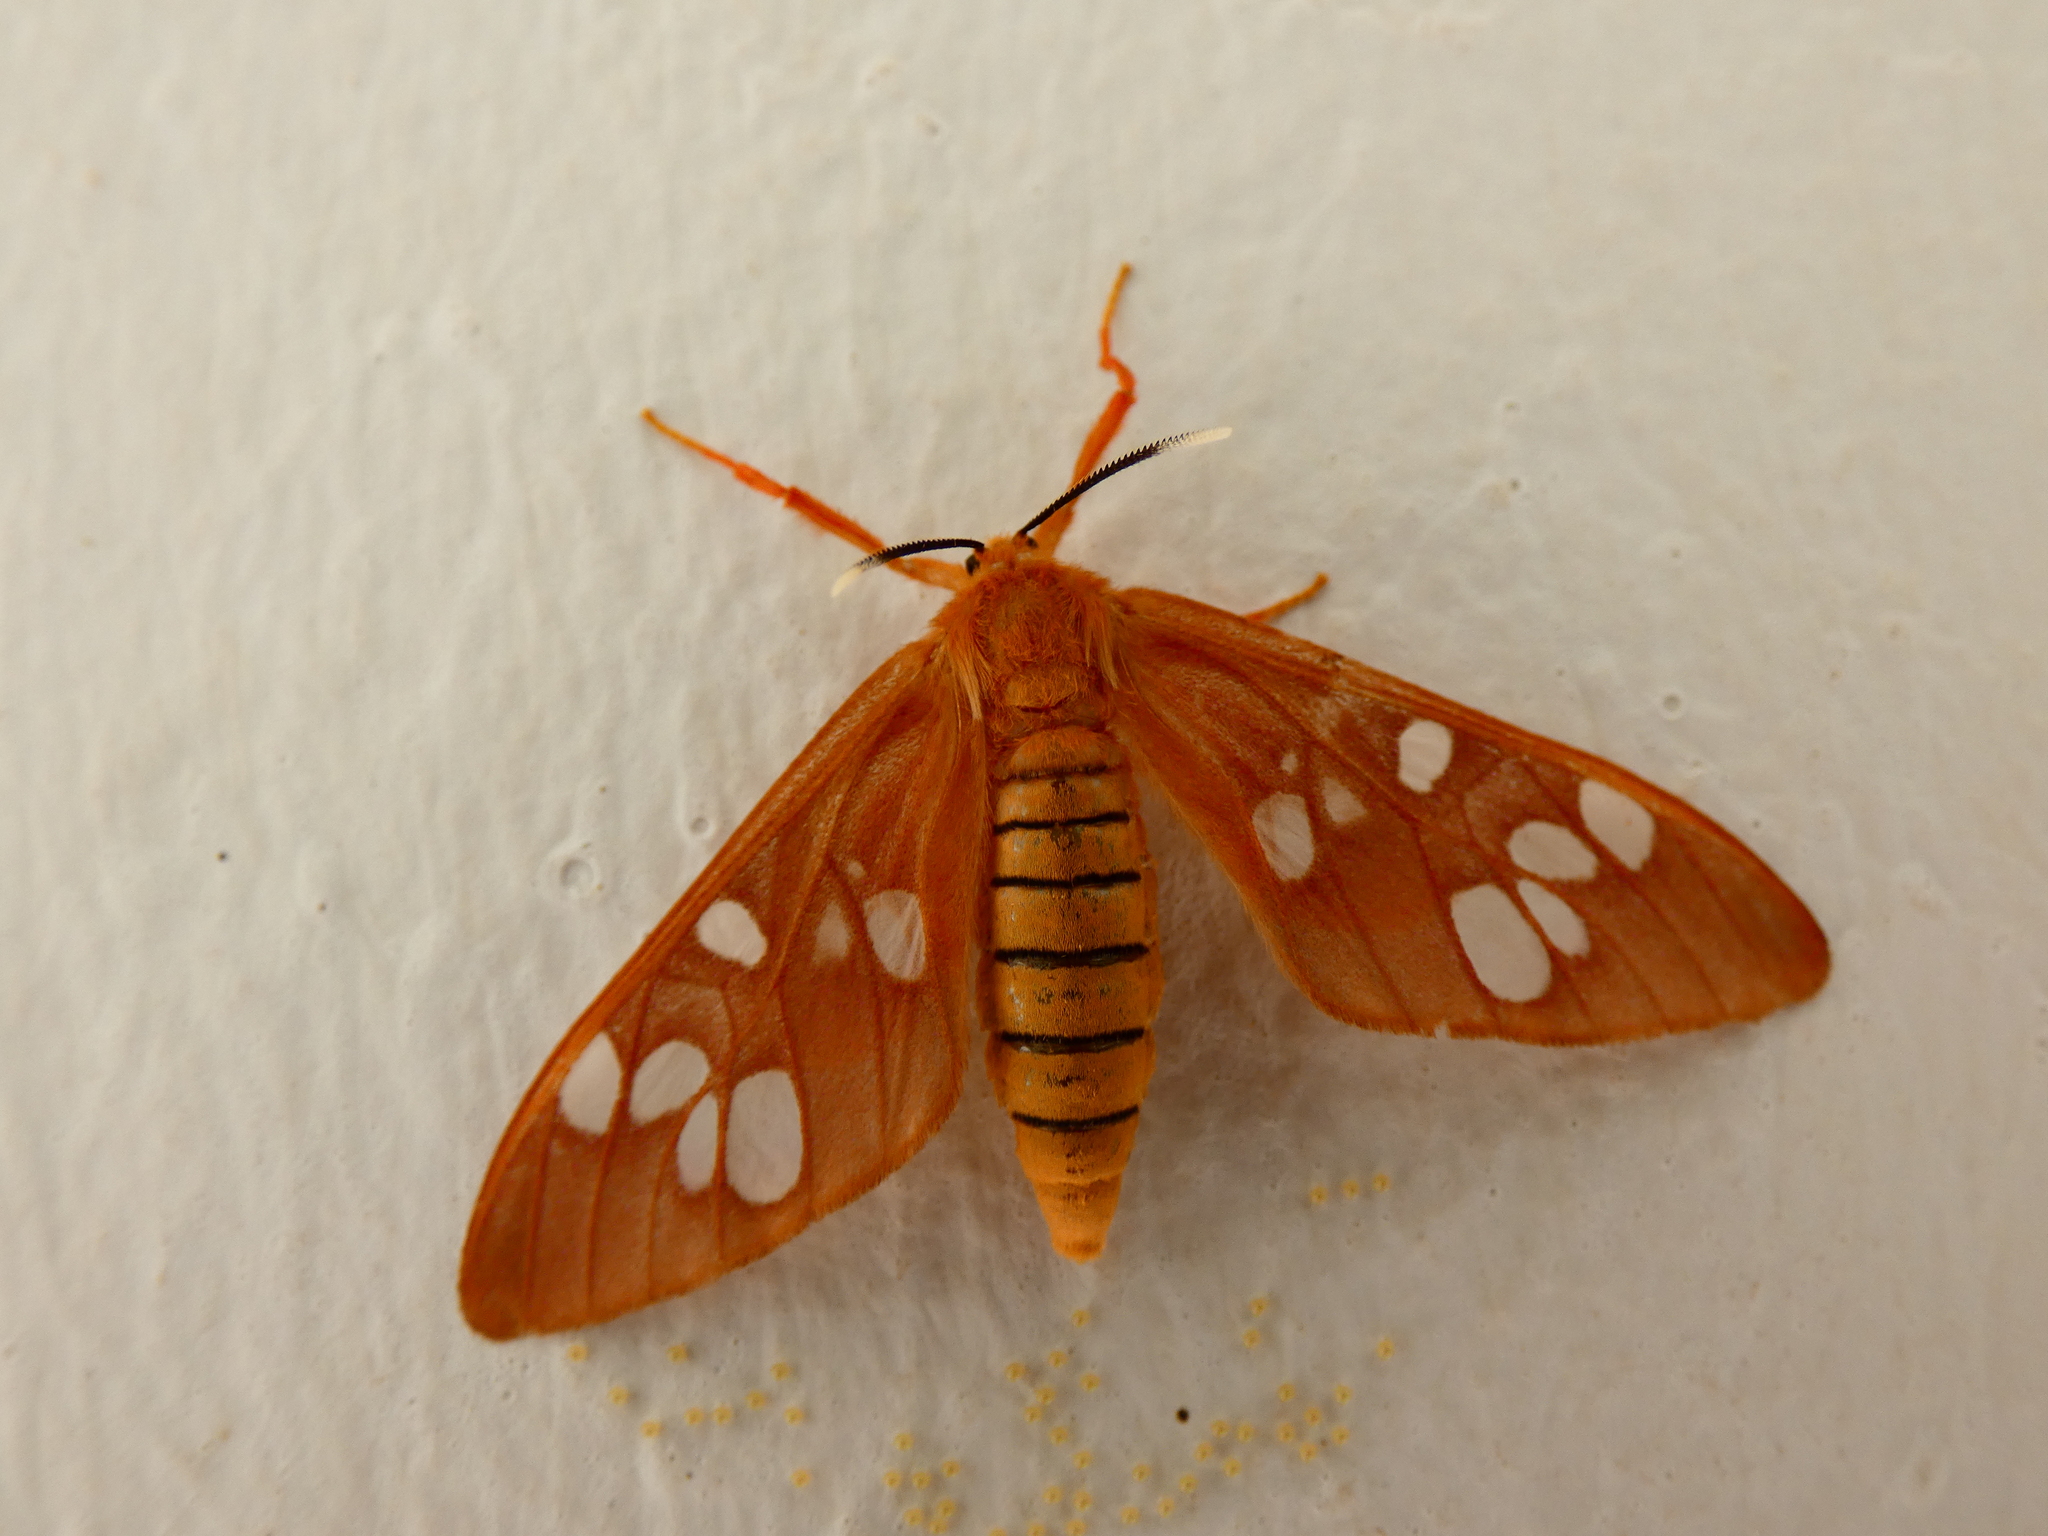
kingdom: Animalia
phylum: Arthropoda
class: Insecta
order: Lepidoptera
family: Erebidae
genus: Pseudothyretes
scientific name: Pseudothyretes carnea
